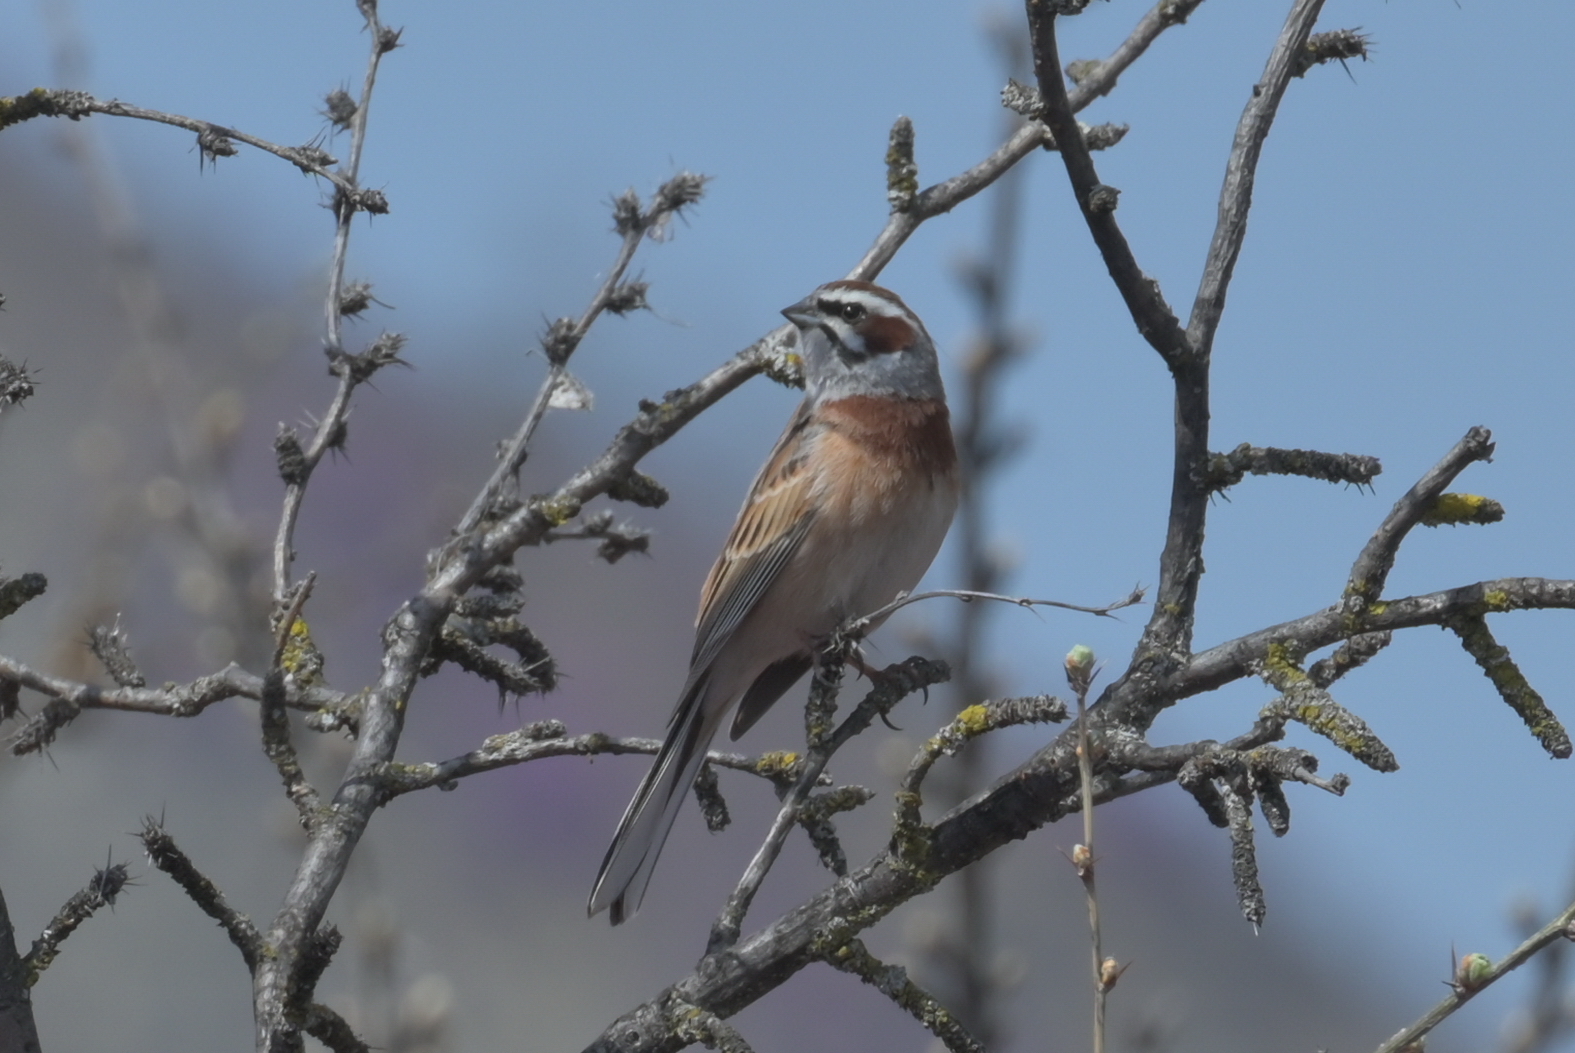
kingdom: Animalia
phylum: Chordata
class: Aves
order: Passeriformes
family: Emberizidae
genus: Emberiza
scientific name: Emberiza cioides
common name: Meadow bunting
